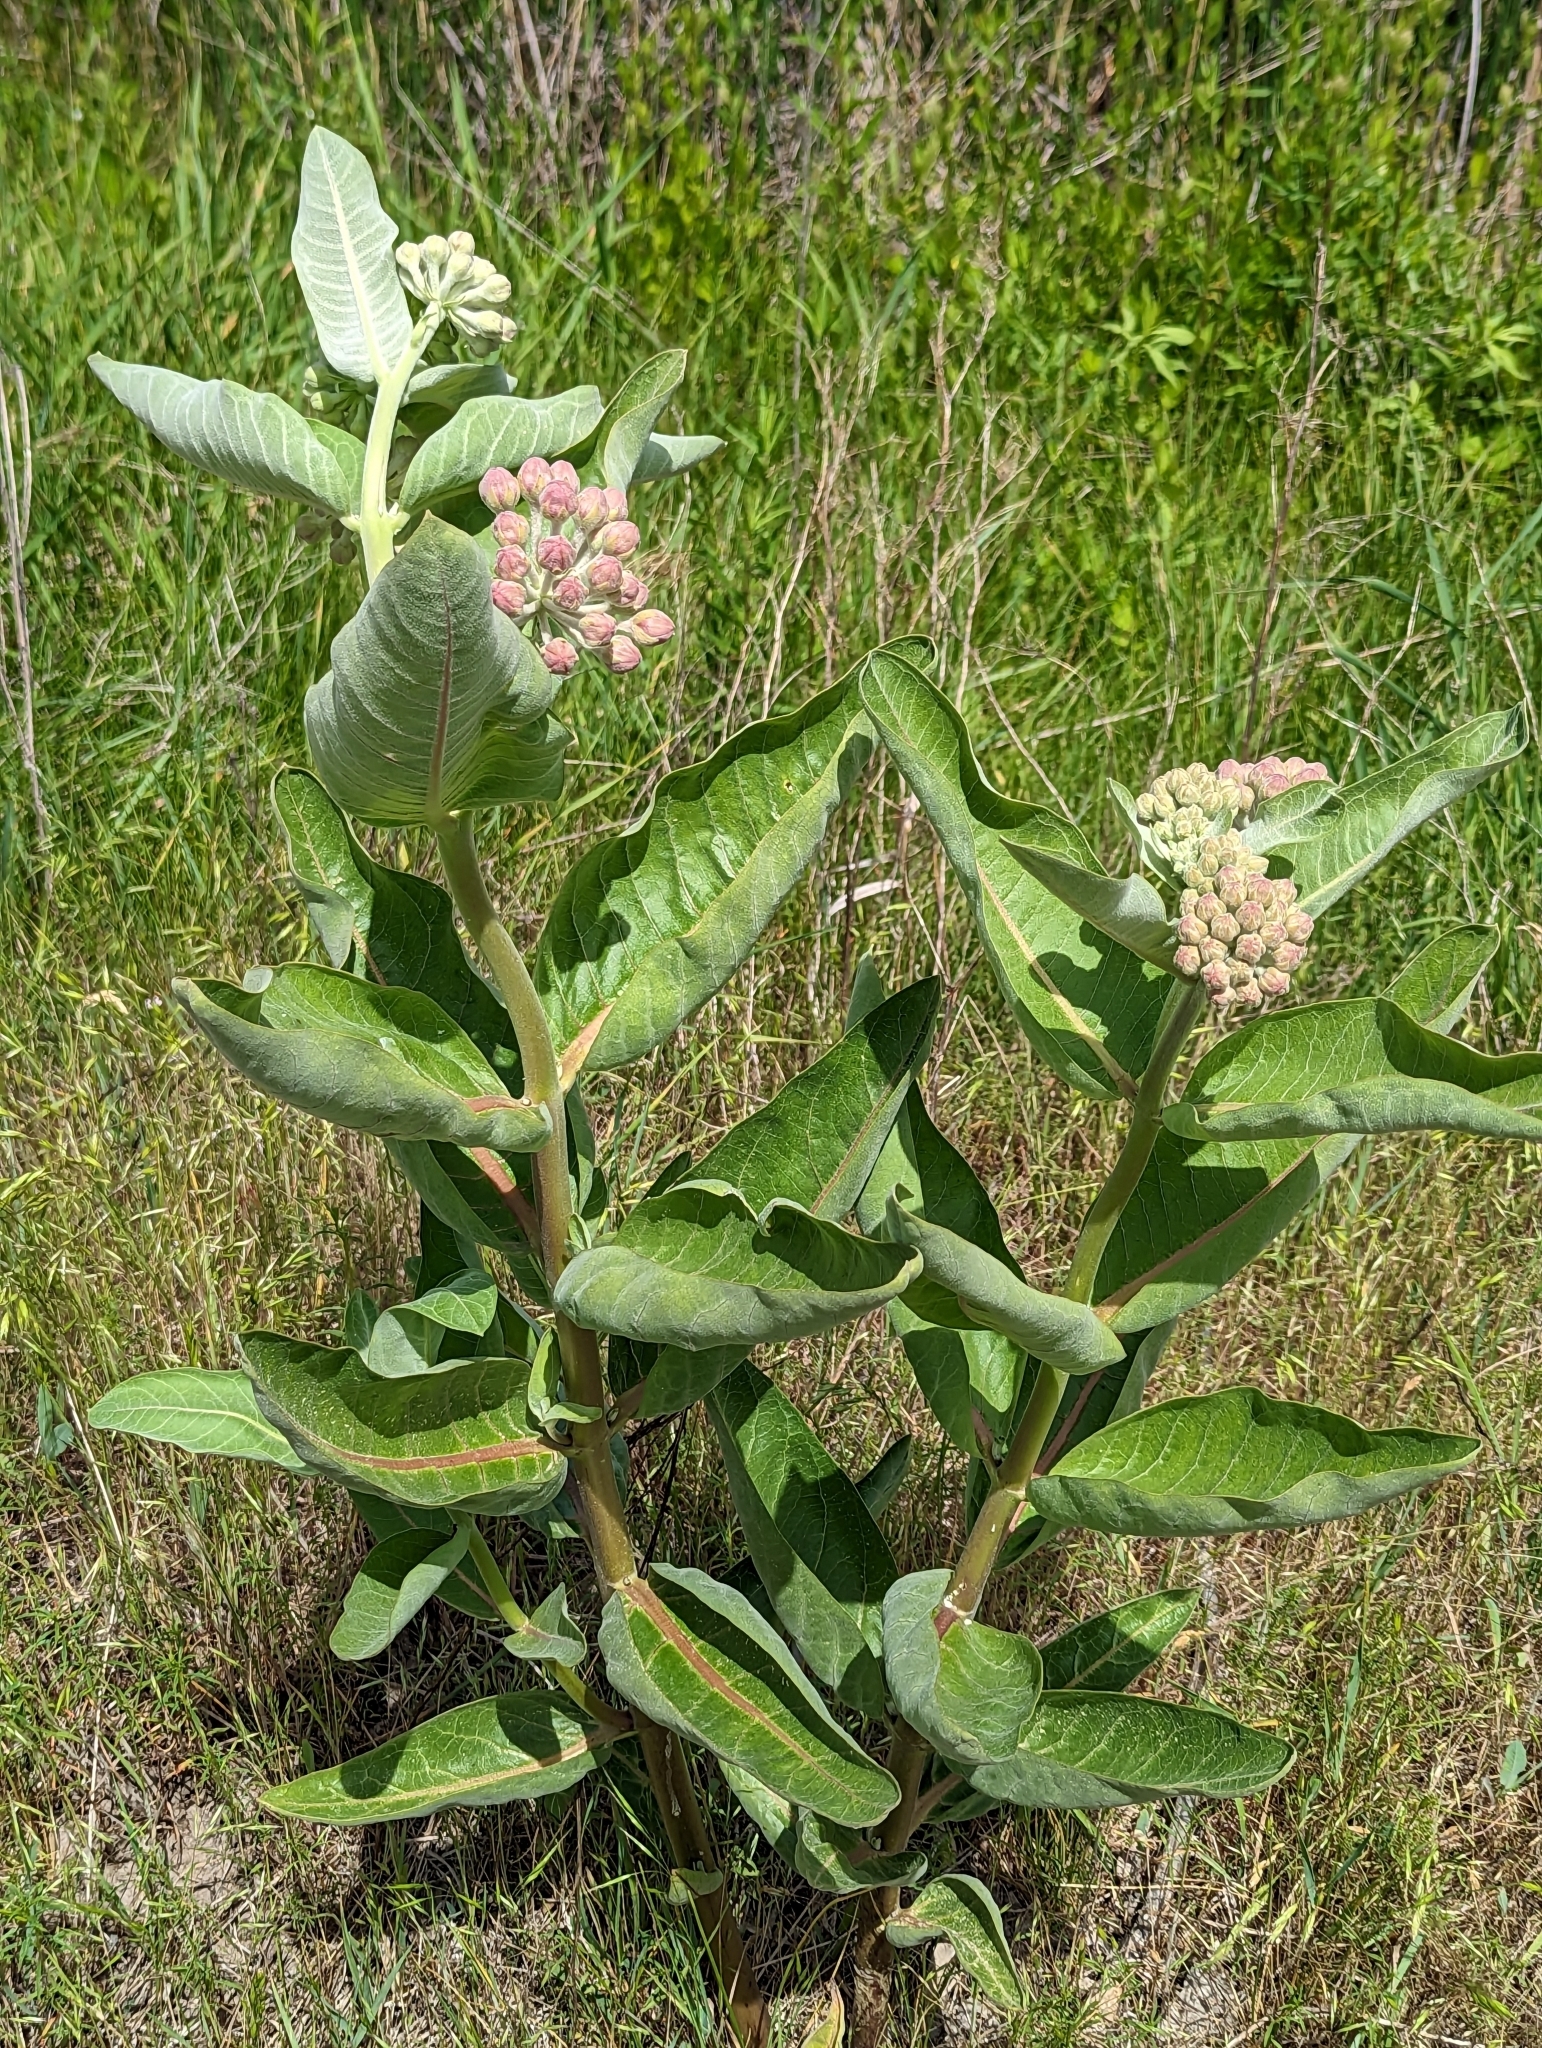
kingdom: Plantae
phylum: Tracheophyta
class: Magnoliopsida
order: Gentianales
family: Apocynaceae
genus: Asclepias
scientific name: Asclepias speciosa
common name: Showy milkweed
